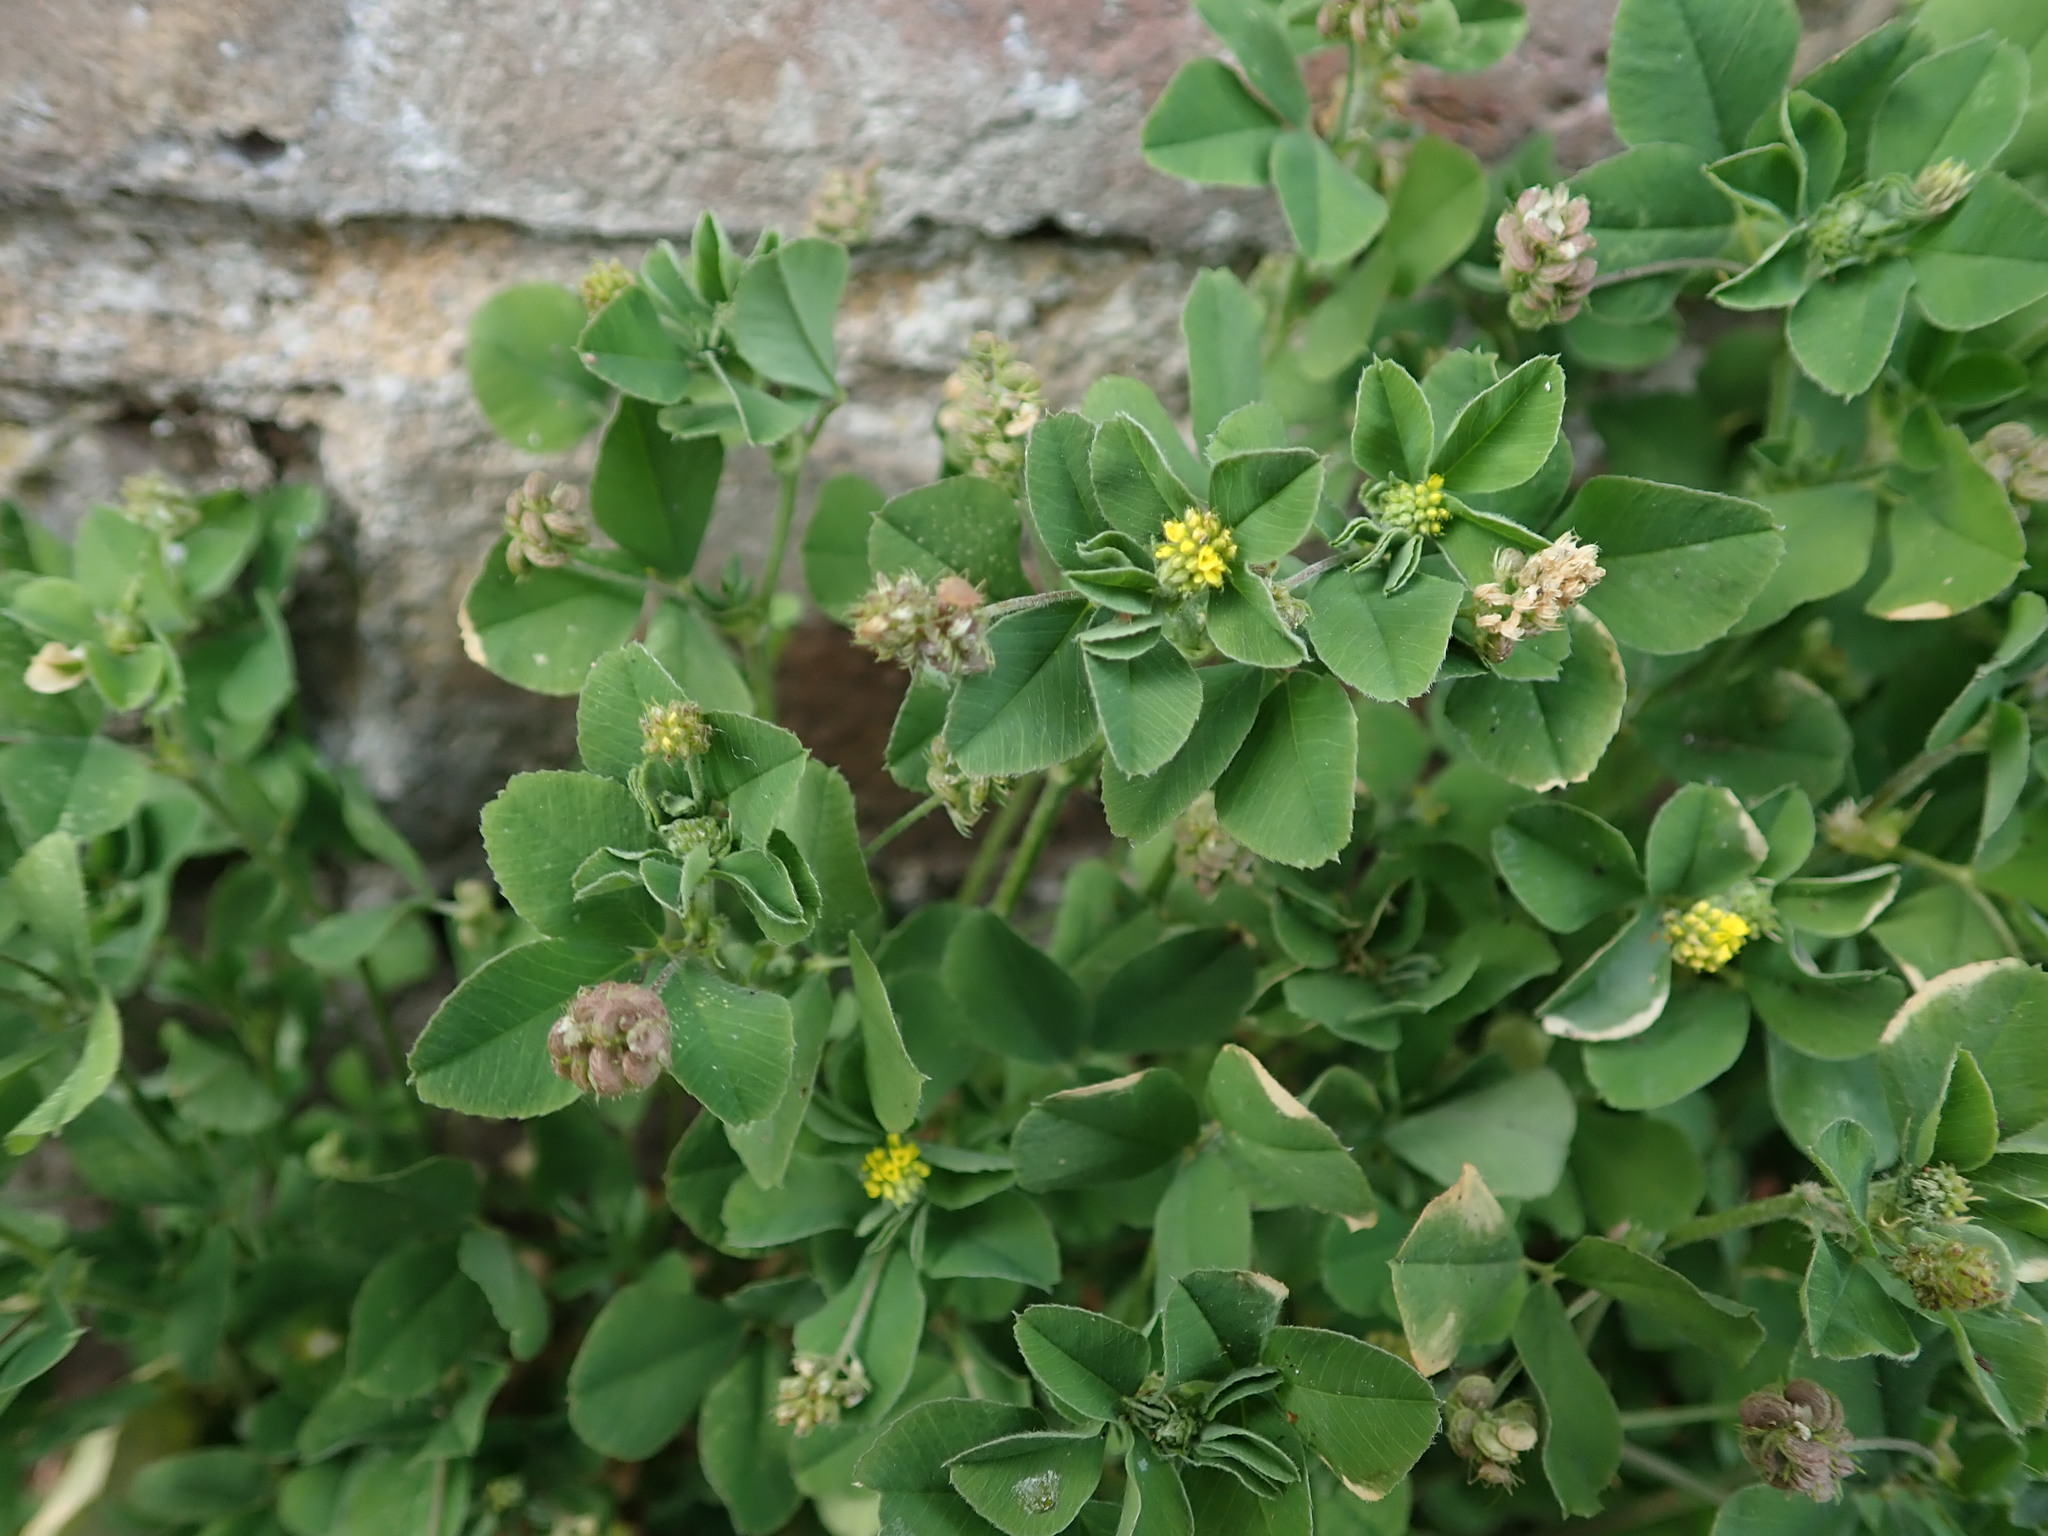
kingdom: Plantae
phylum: Tracheophyta
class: Magnoliopsida
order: Fabales
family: Fabaceae
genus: Medicago
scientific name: Medicago lupulina
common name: Black medick
